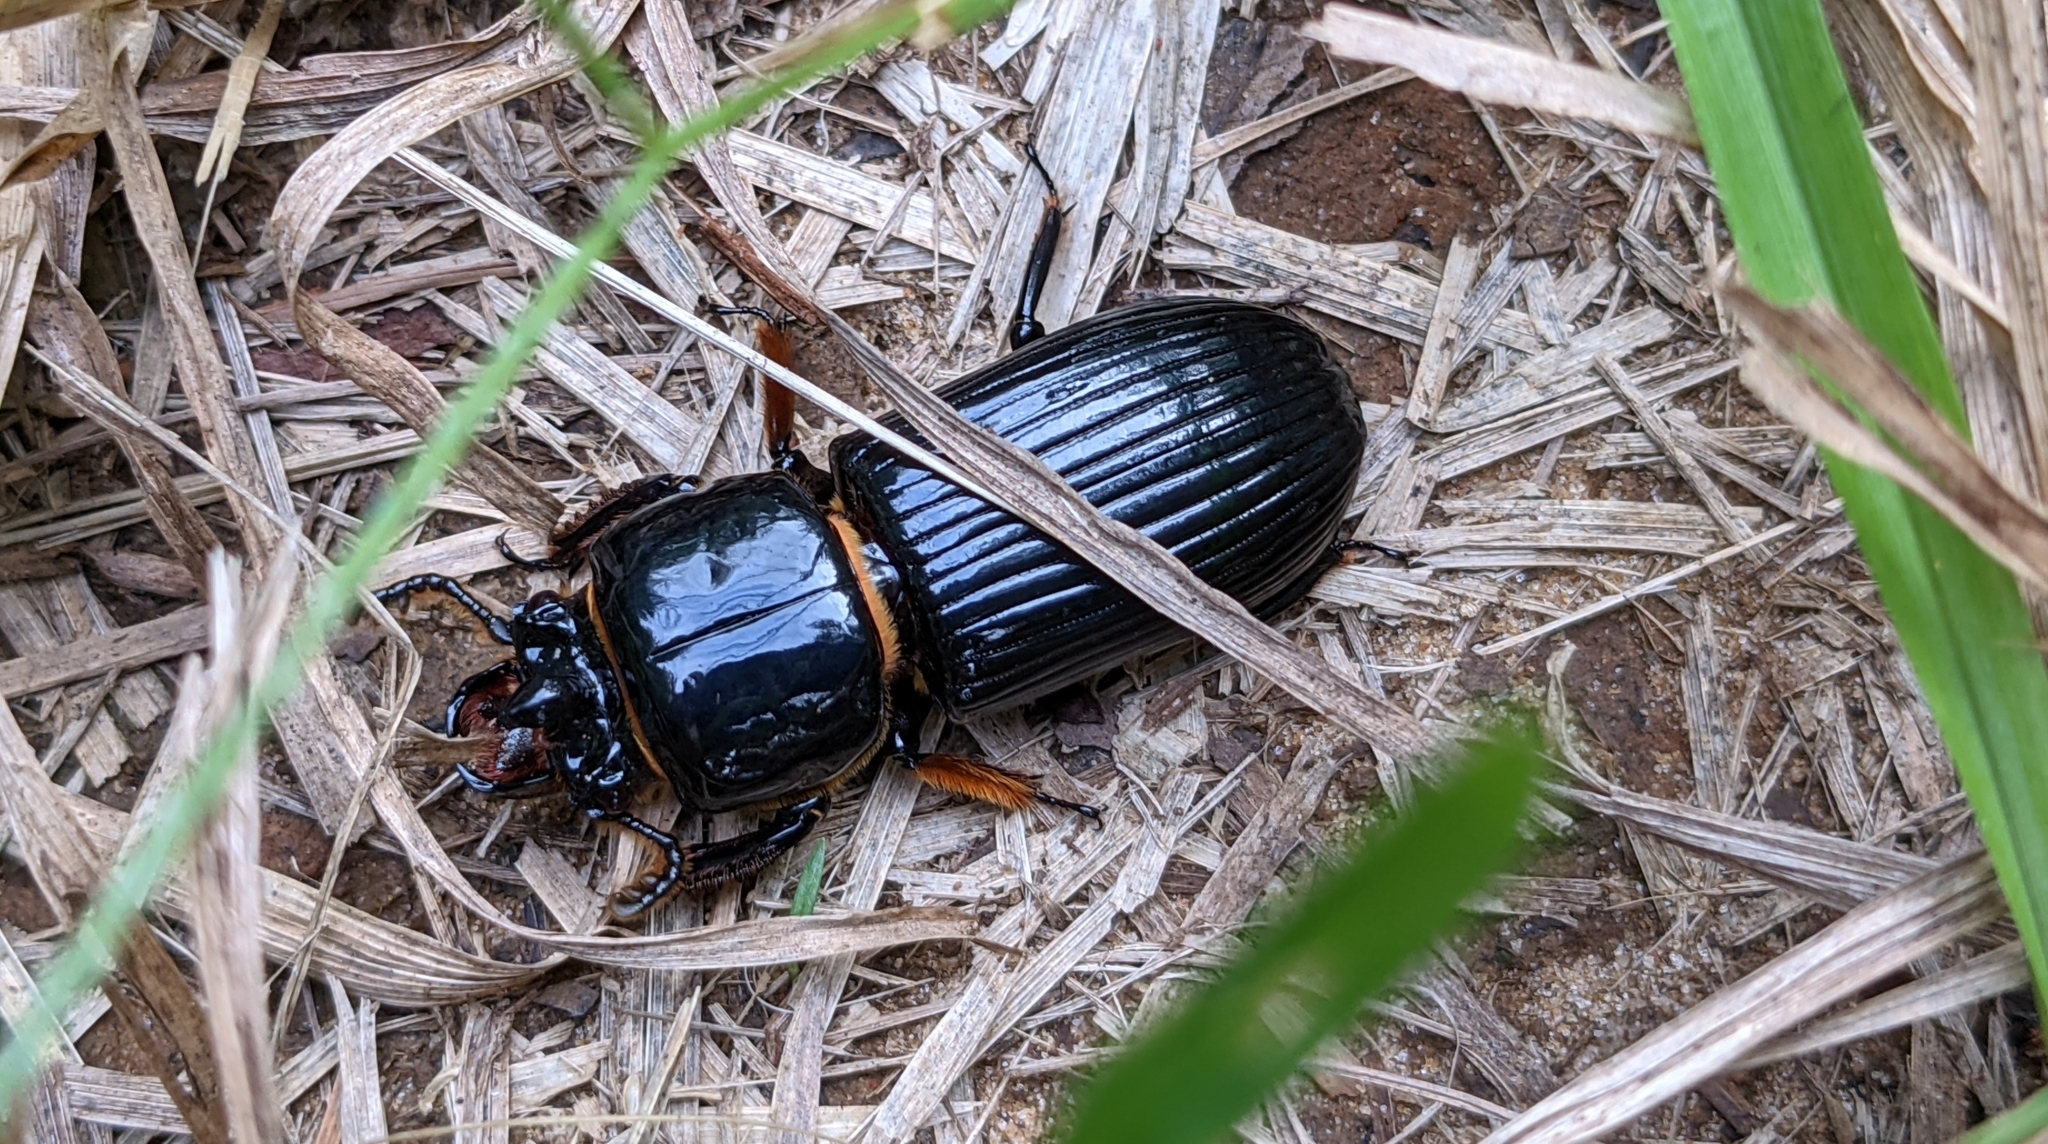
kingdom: Animalia
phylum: Arthropoda
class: Insecta
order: Coleoptera
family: Passalidae
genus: Odontotaenius
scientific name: Odontotaenius disjunctus
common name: Patent leather beetle
